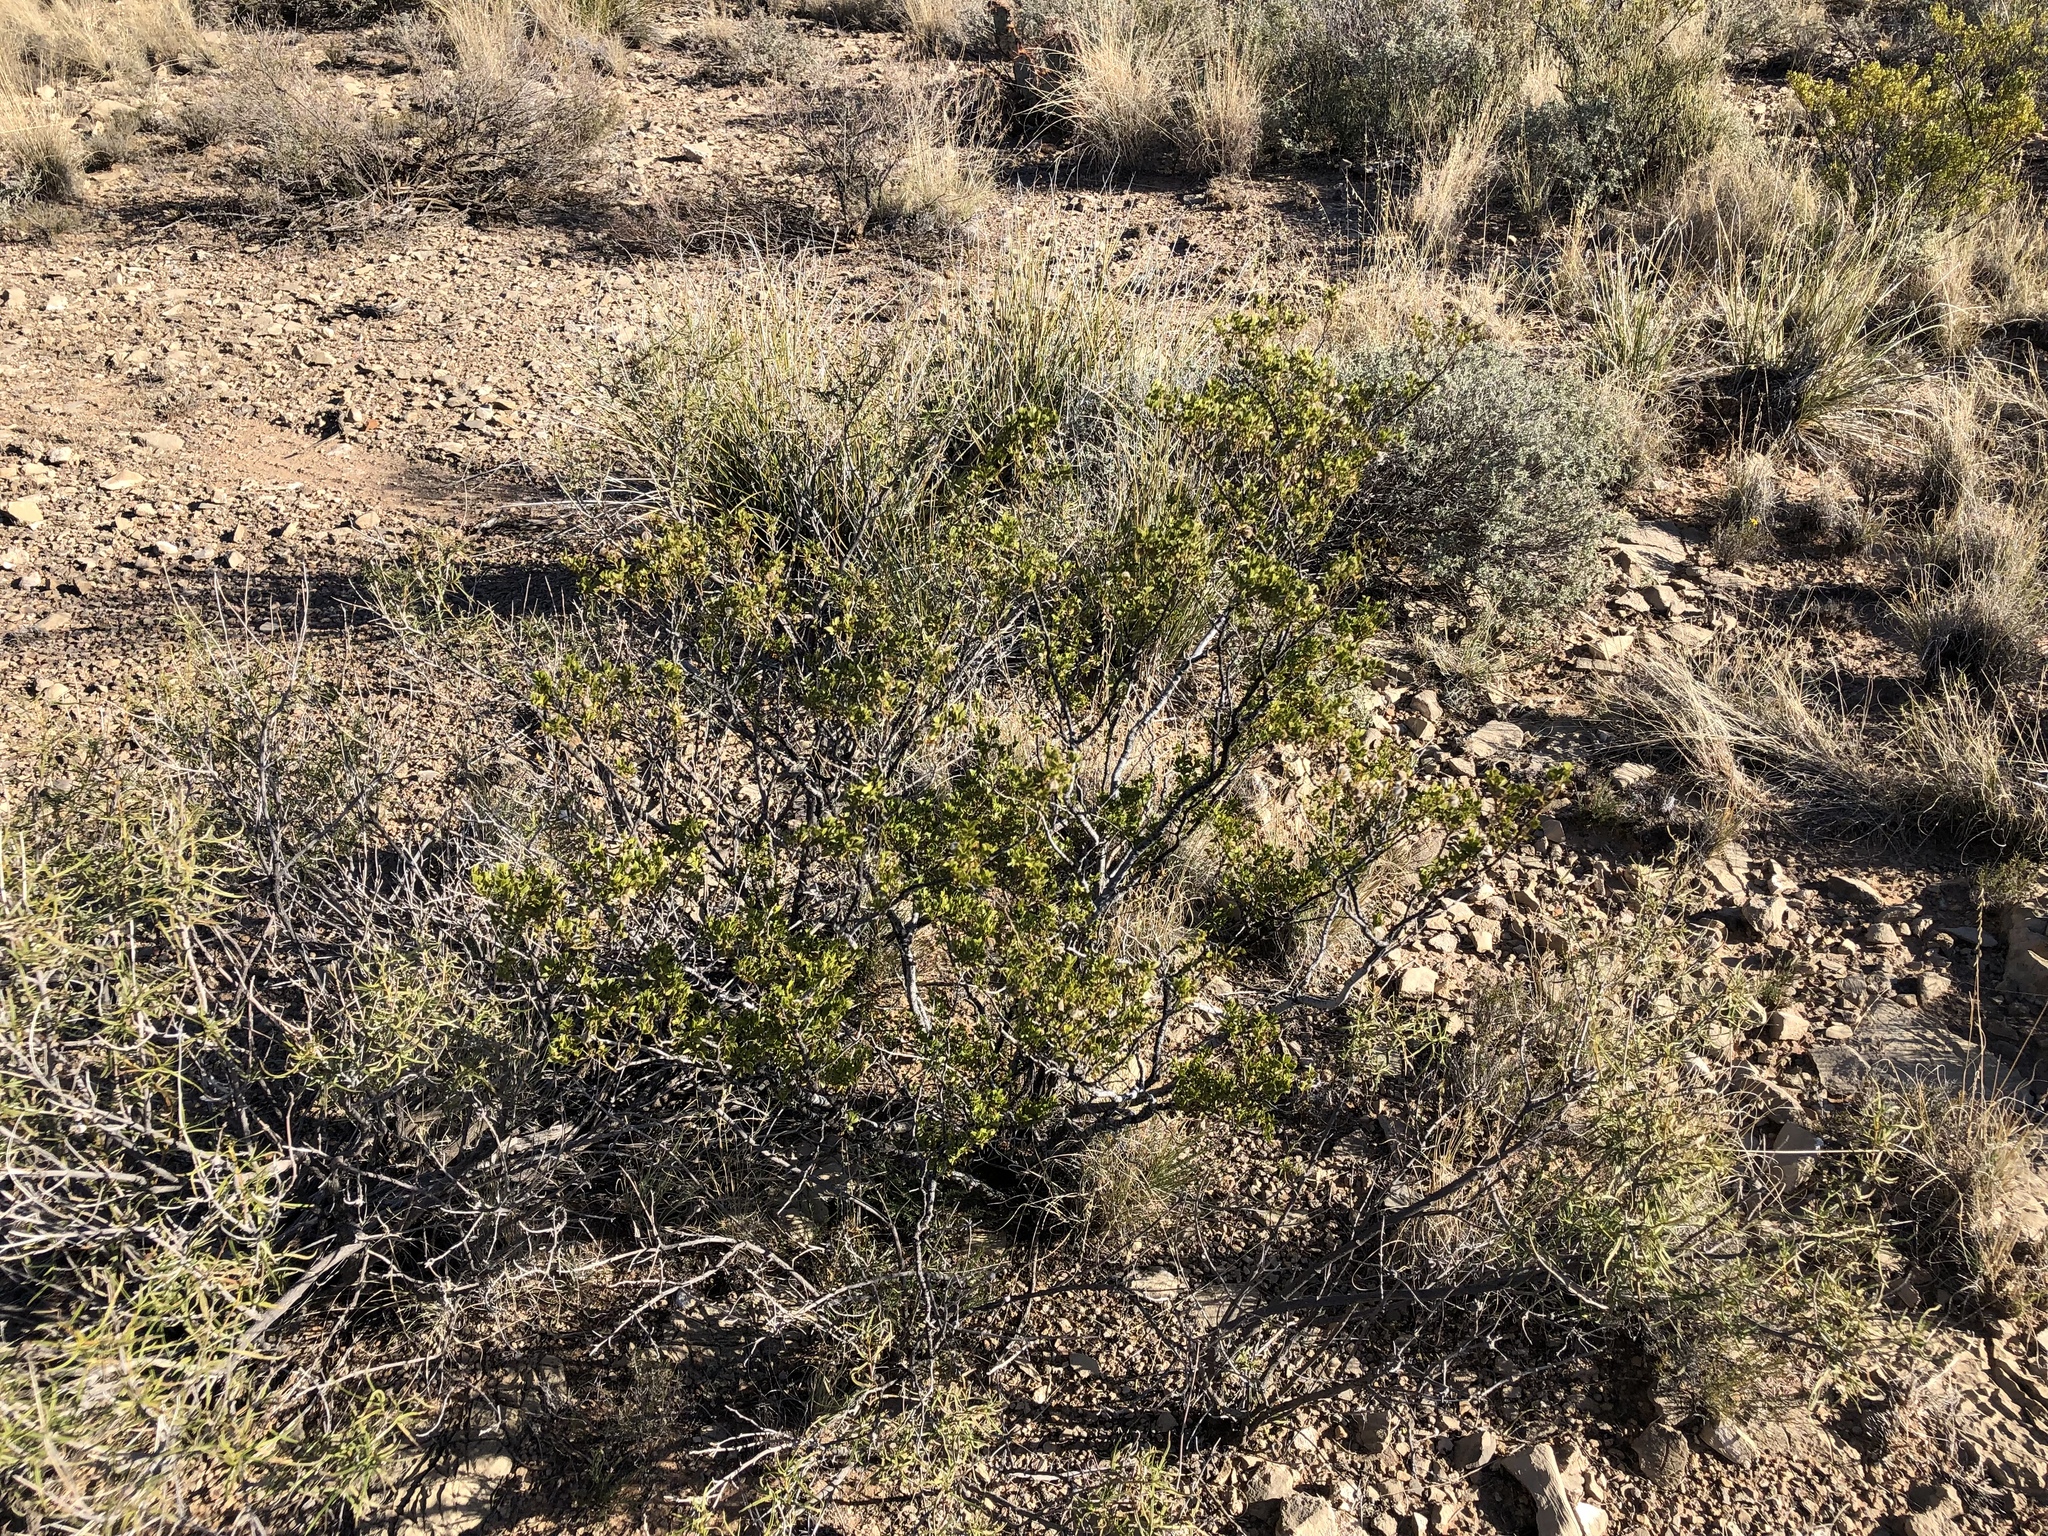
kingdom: Plantae
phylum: Tracheophyta
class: Magnoliopsida
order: Zygophyllales
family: Zygophyllaceae
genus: Larrea
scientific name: Larrea tridentata
